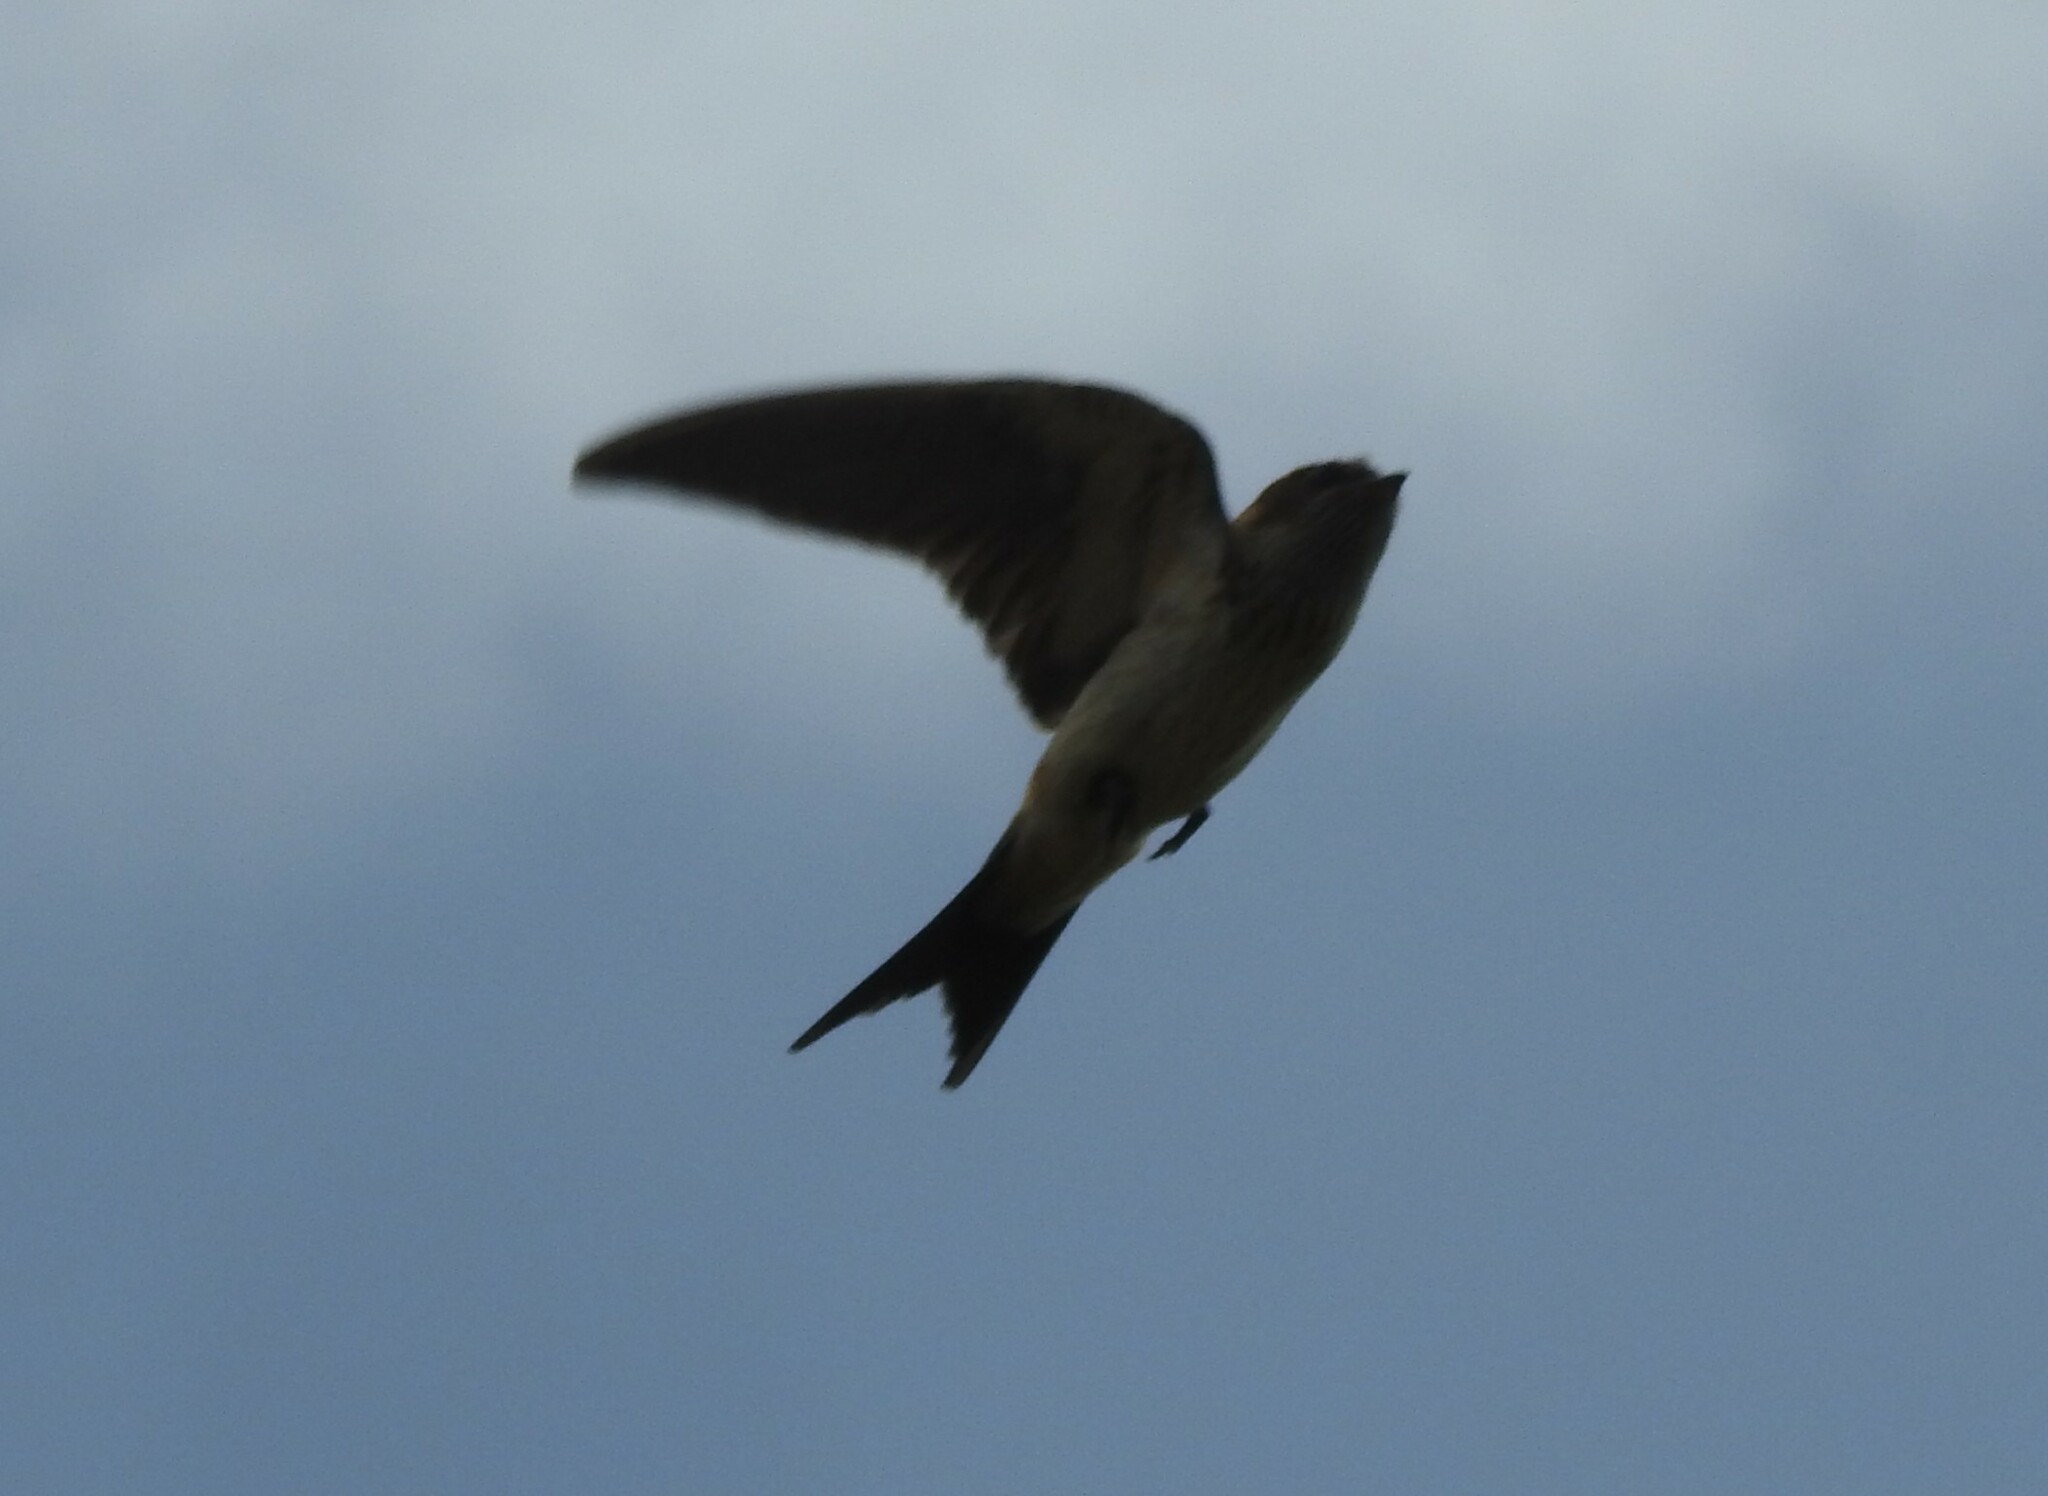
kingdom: Animalia
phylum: Chordata
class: Aves
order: Passeriformes
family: Hirundinidae
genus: Cecropis
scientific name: Cecropis daurica
